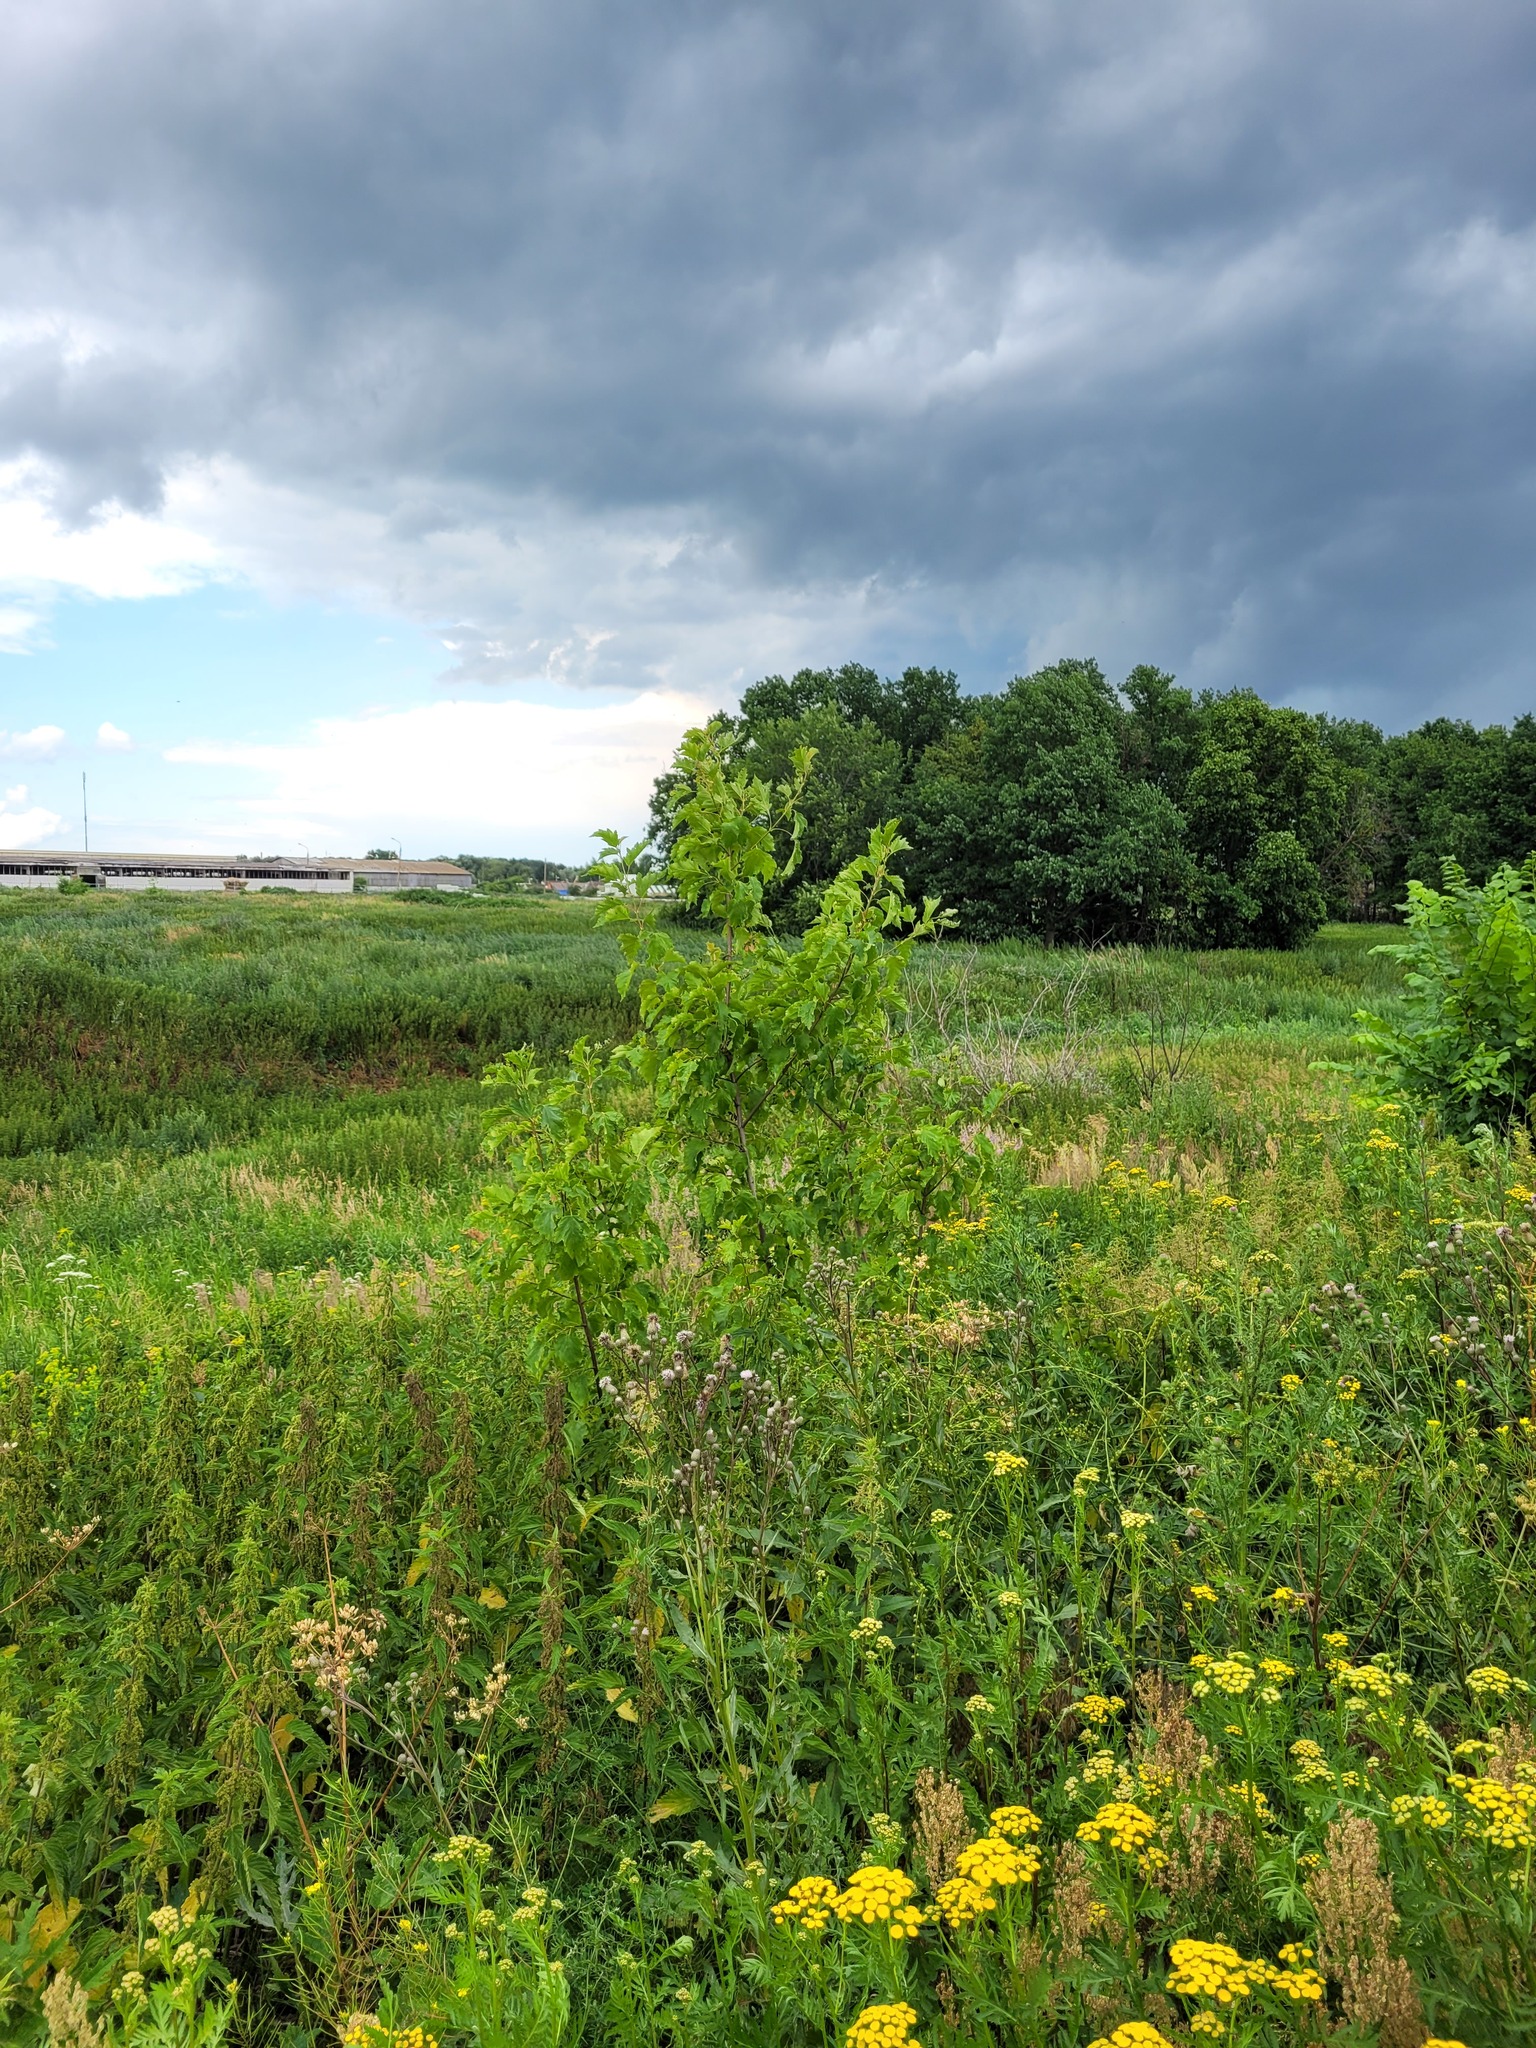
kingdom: Plantae
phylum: Tracheophyta
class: Magnoliopsida
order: Sapindales
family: Sapindaceae
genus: Acer
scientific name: Acer tataricum
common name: Tartar maple
